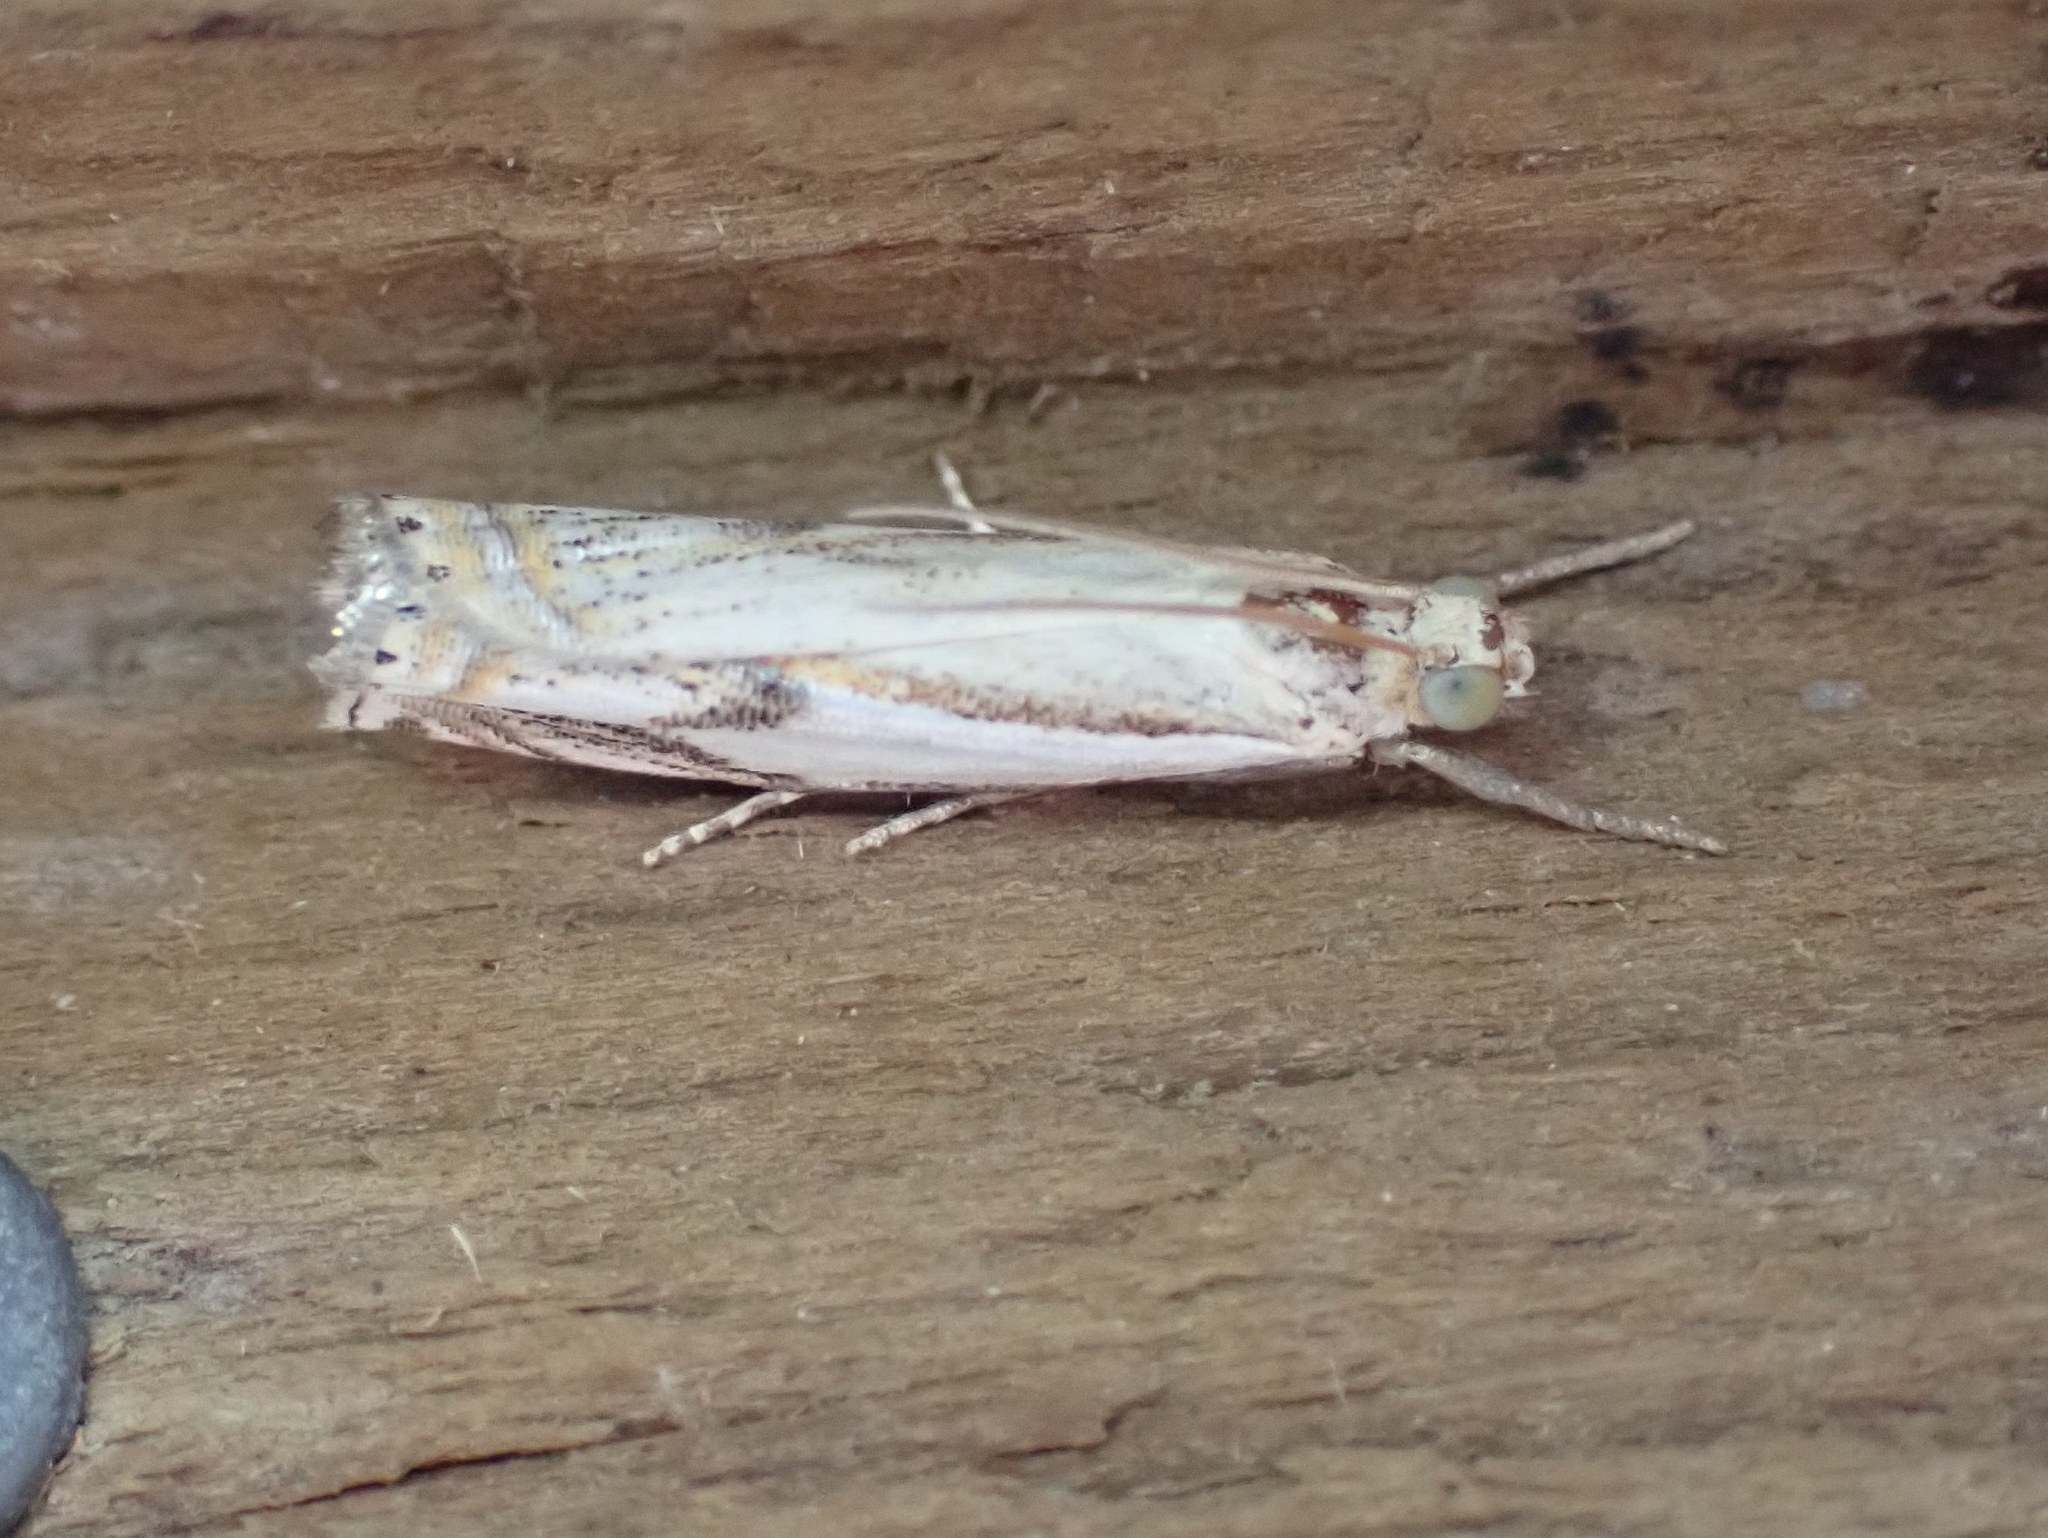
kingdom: Animalia
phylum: Arthropoda
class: Insecta
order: Lepidoptera
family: Crambidae
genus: Crambus
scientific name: Crambus agitatellus
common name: Double-banded grass-veneer
